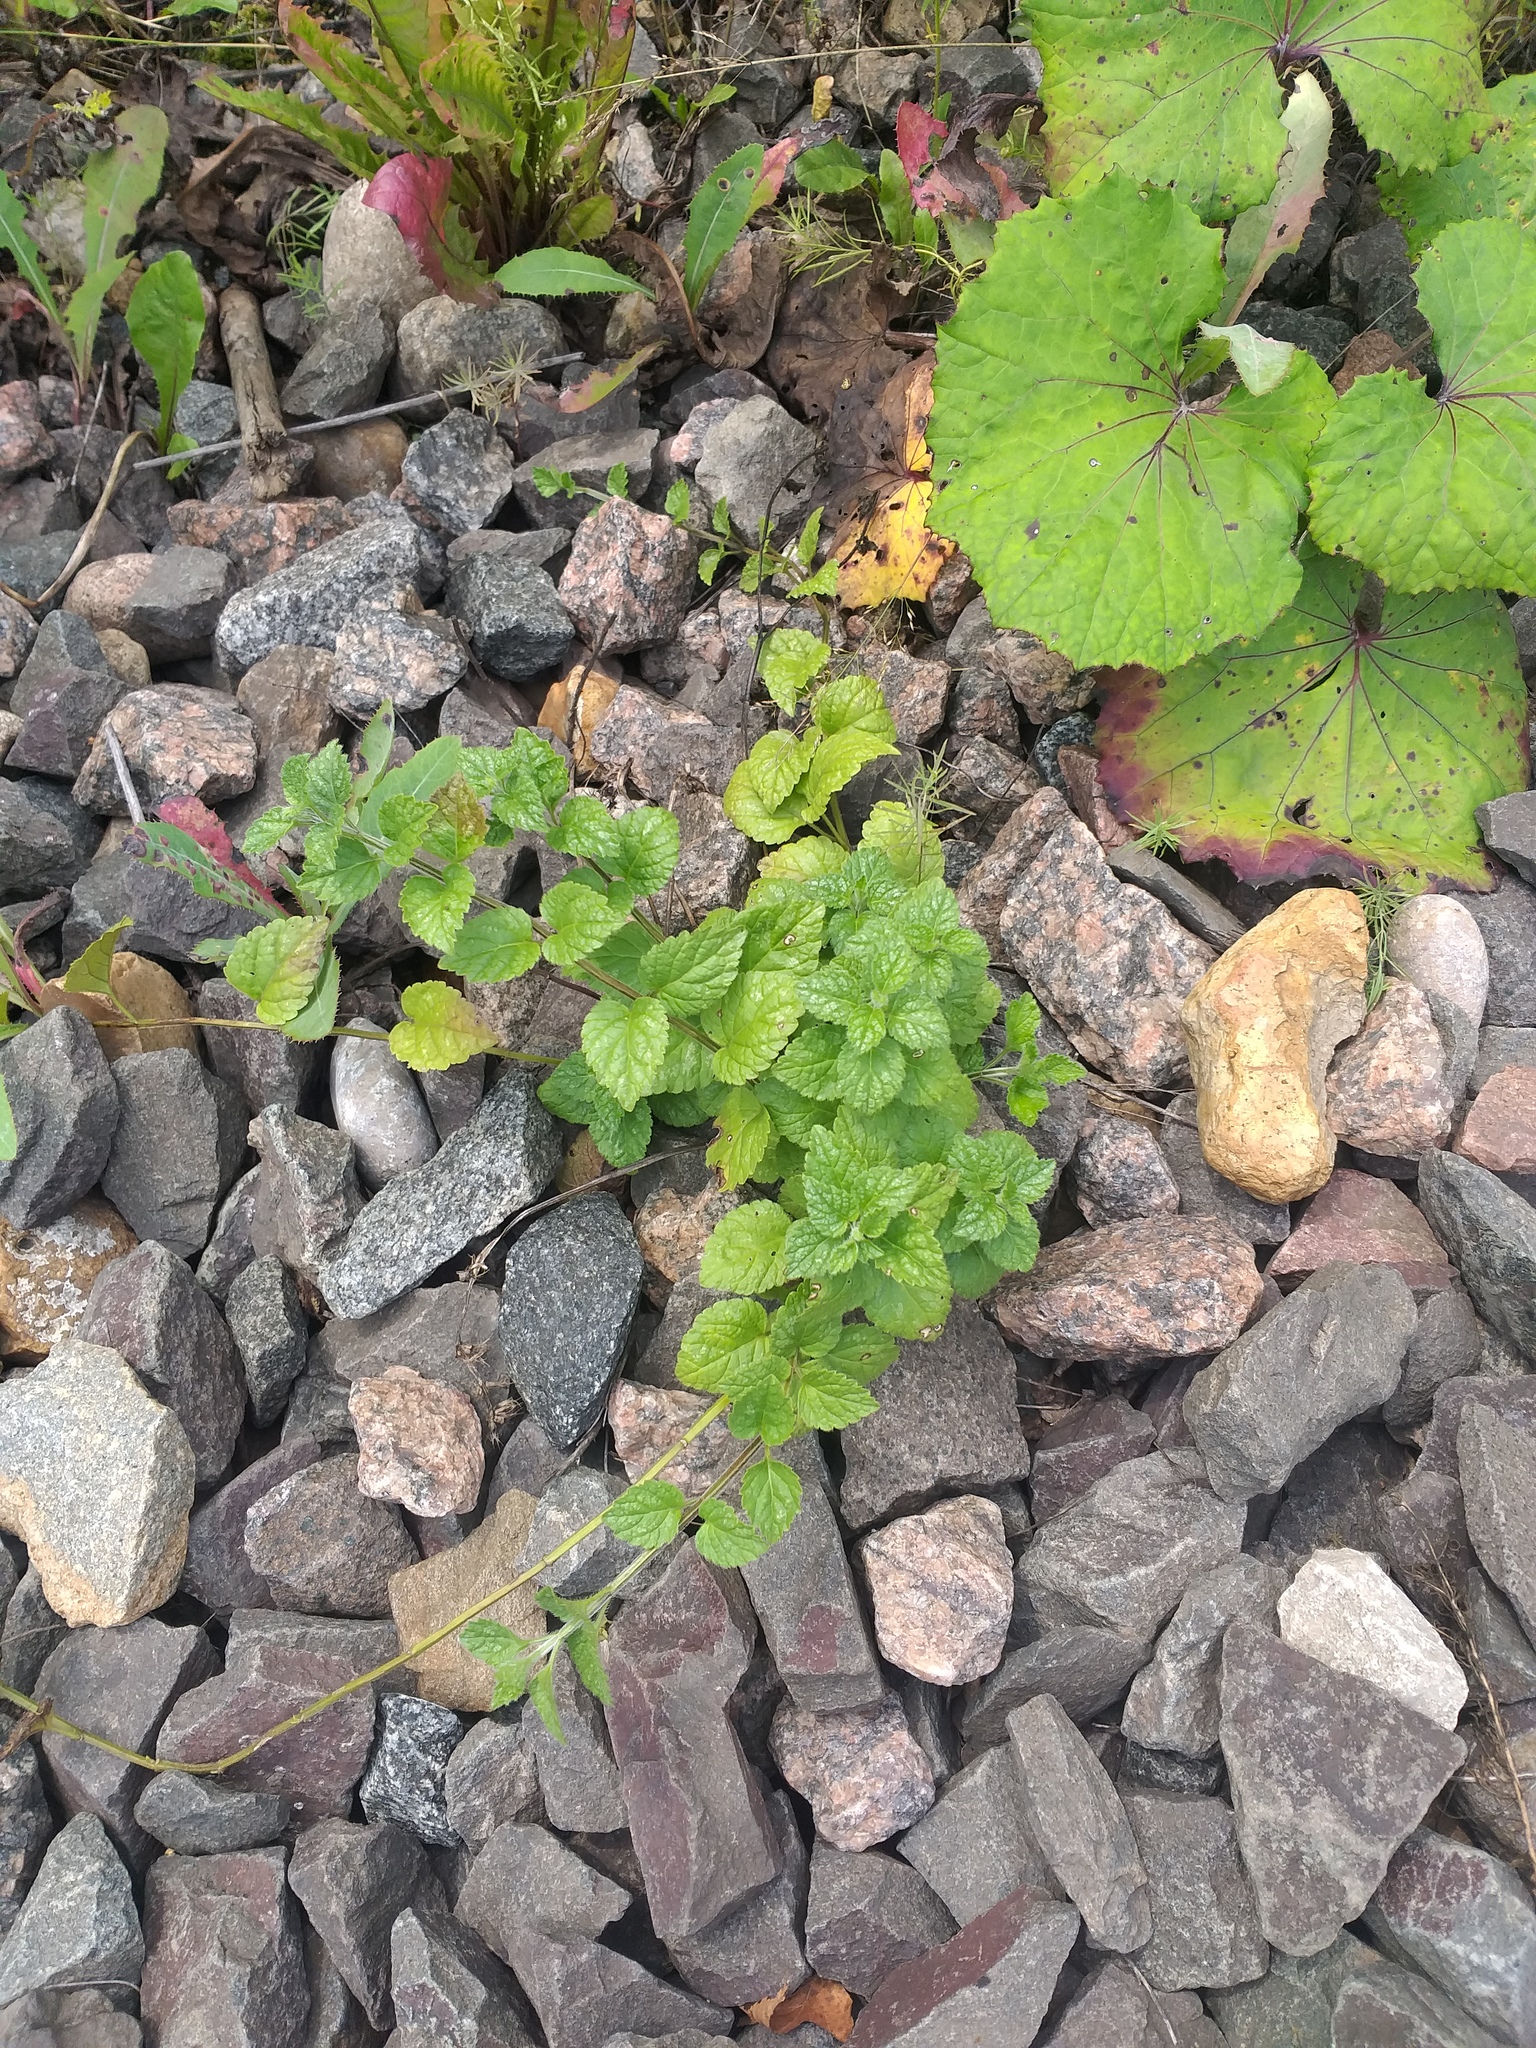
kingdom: Plantae
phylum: Tracheophyta
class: Magnoliopsida
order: Lamiales
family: Lamiaceae
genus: Lamium
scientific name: Lamium galeobdolon
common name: Yellow archangel
